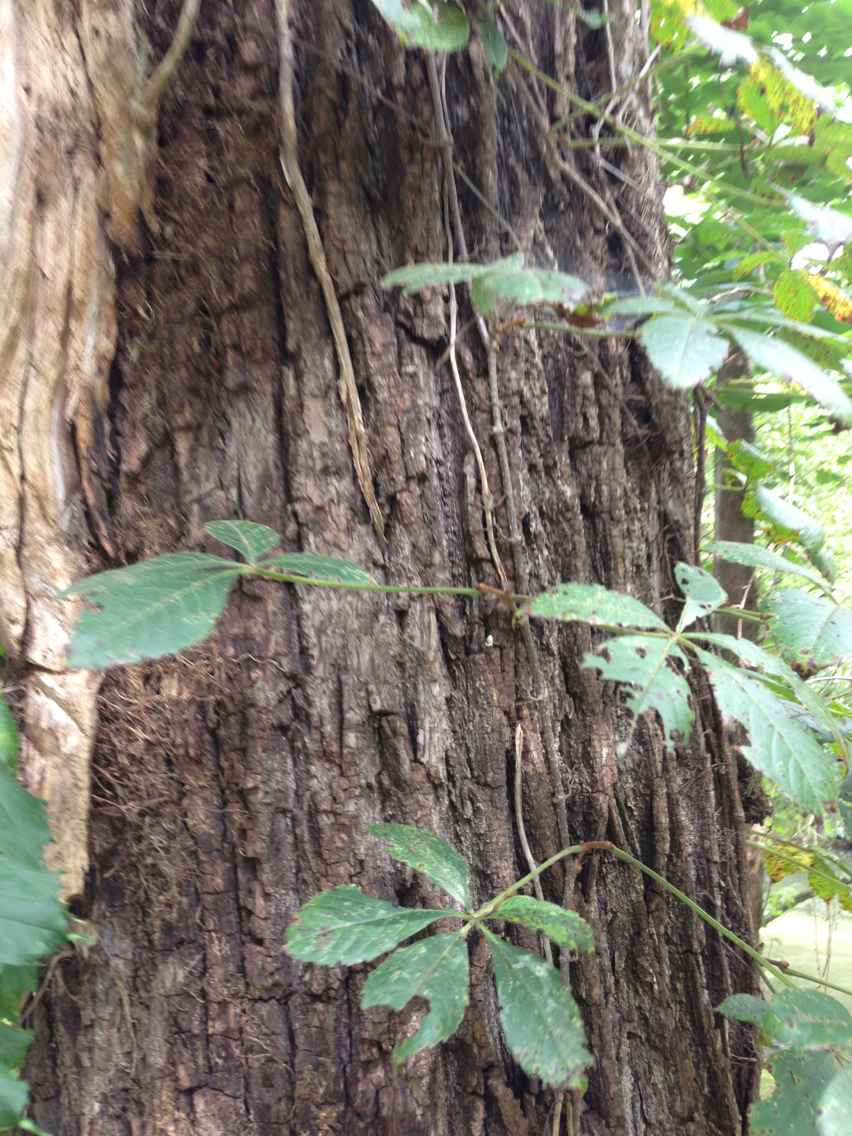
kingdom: Plantae
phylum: Tracheophyta
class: Magnoliopsida
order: Vitales
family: Vitaceae
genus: Parthenocissus
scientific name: Parthenocissus quinquefolia
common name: Virginia-creeper
